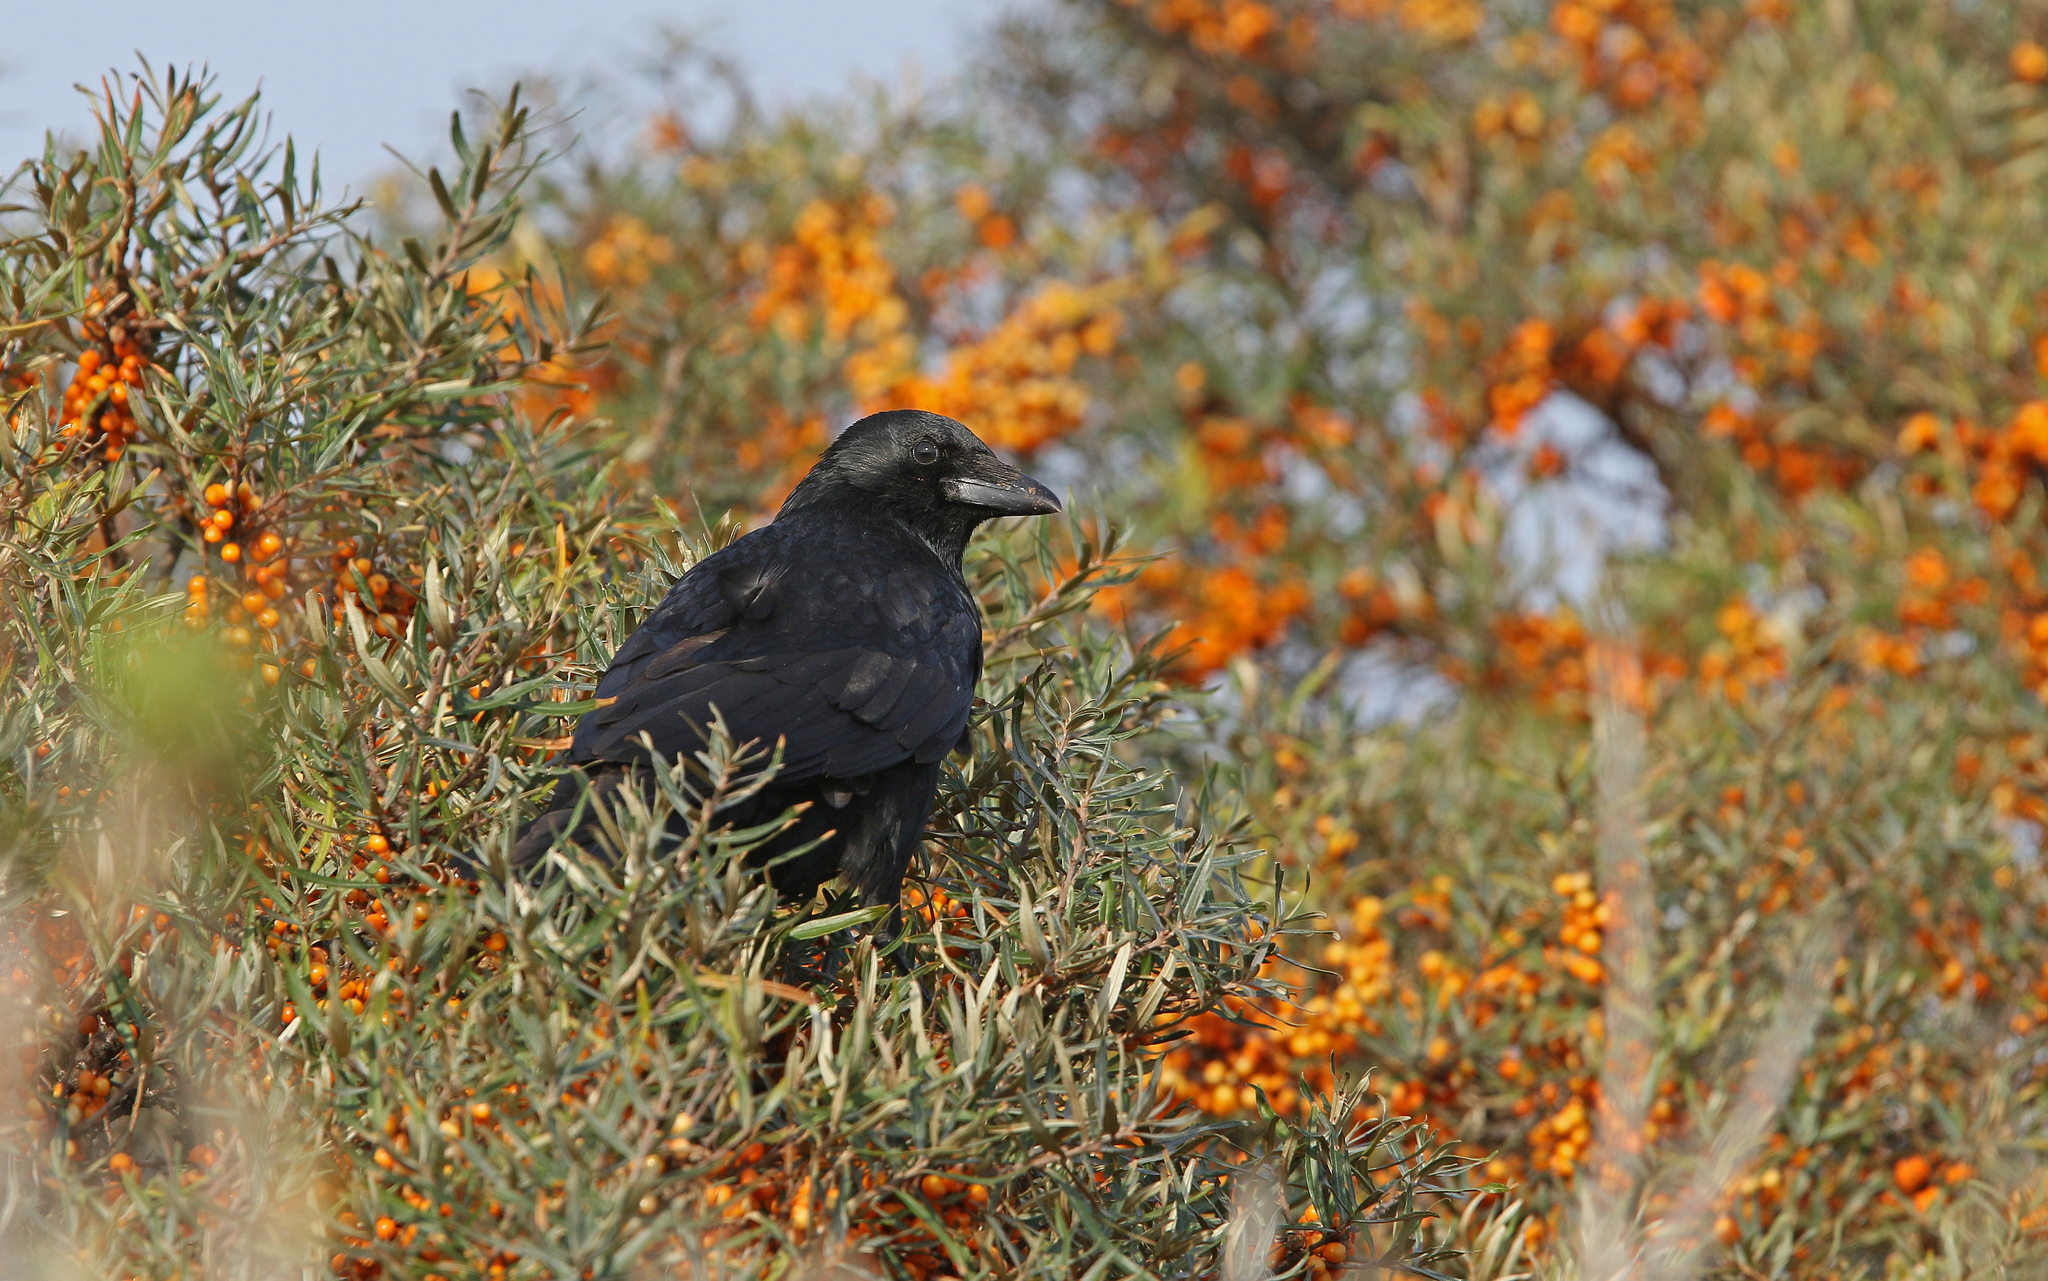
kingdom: Animalia
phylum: Chordata
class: Aves
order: Passeriformes
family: Corvidae
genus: Corvus
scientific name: Corvus corone
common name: Carrion crow
